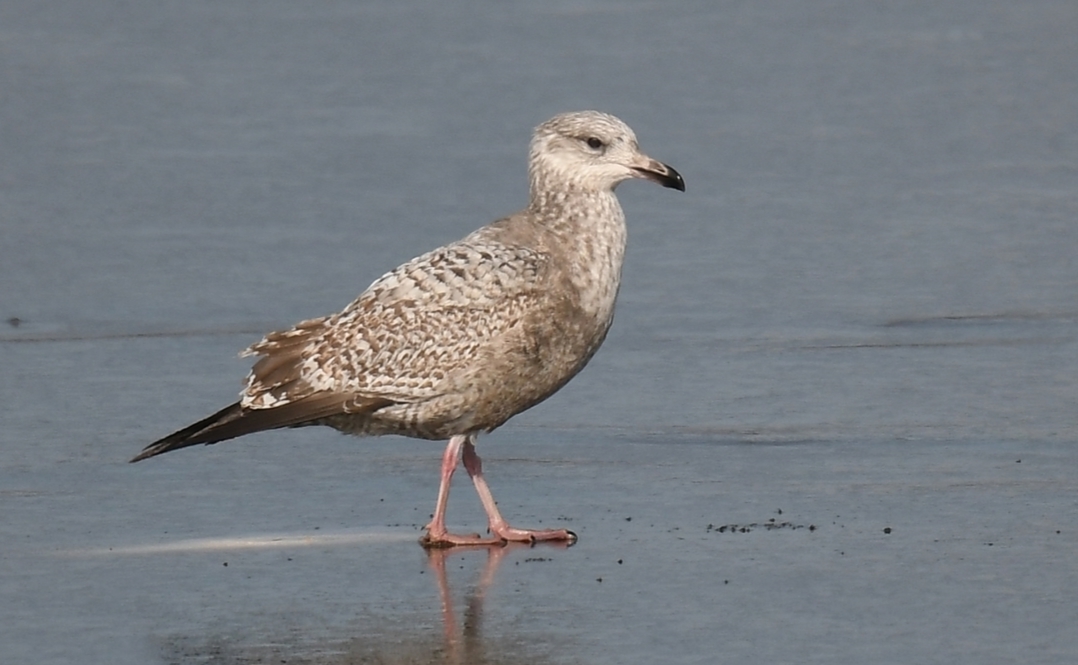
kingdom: Animalia
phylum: Chordata
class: Aves
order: Charadriiformes
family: Laridae
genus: Larus
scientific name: Larus argentatus
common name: Herring gull
